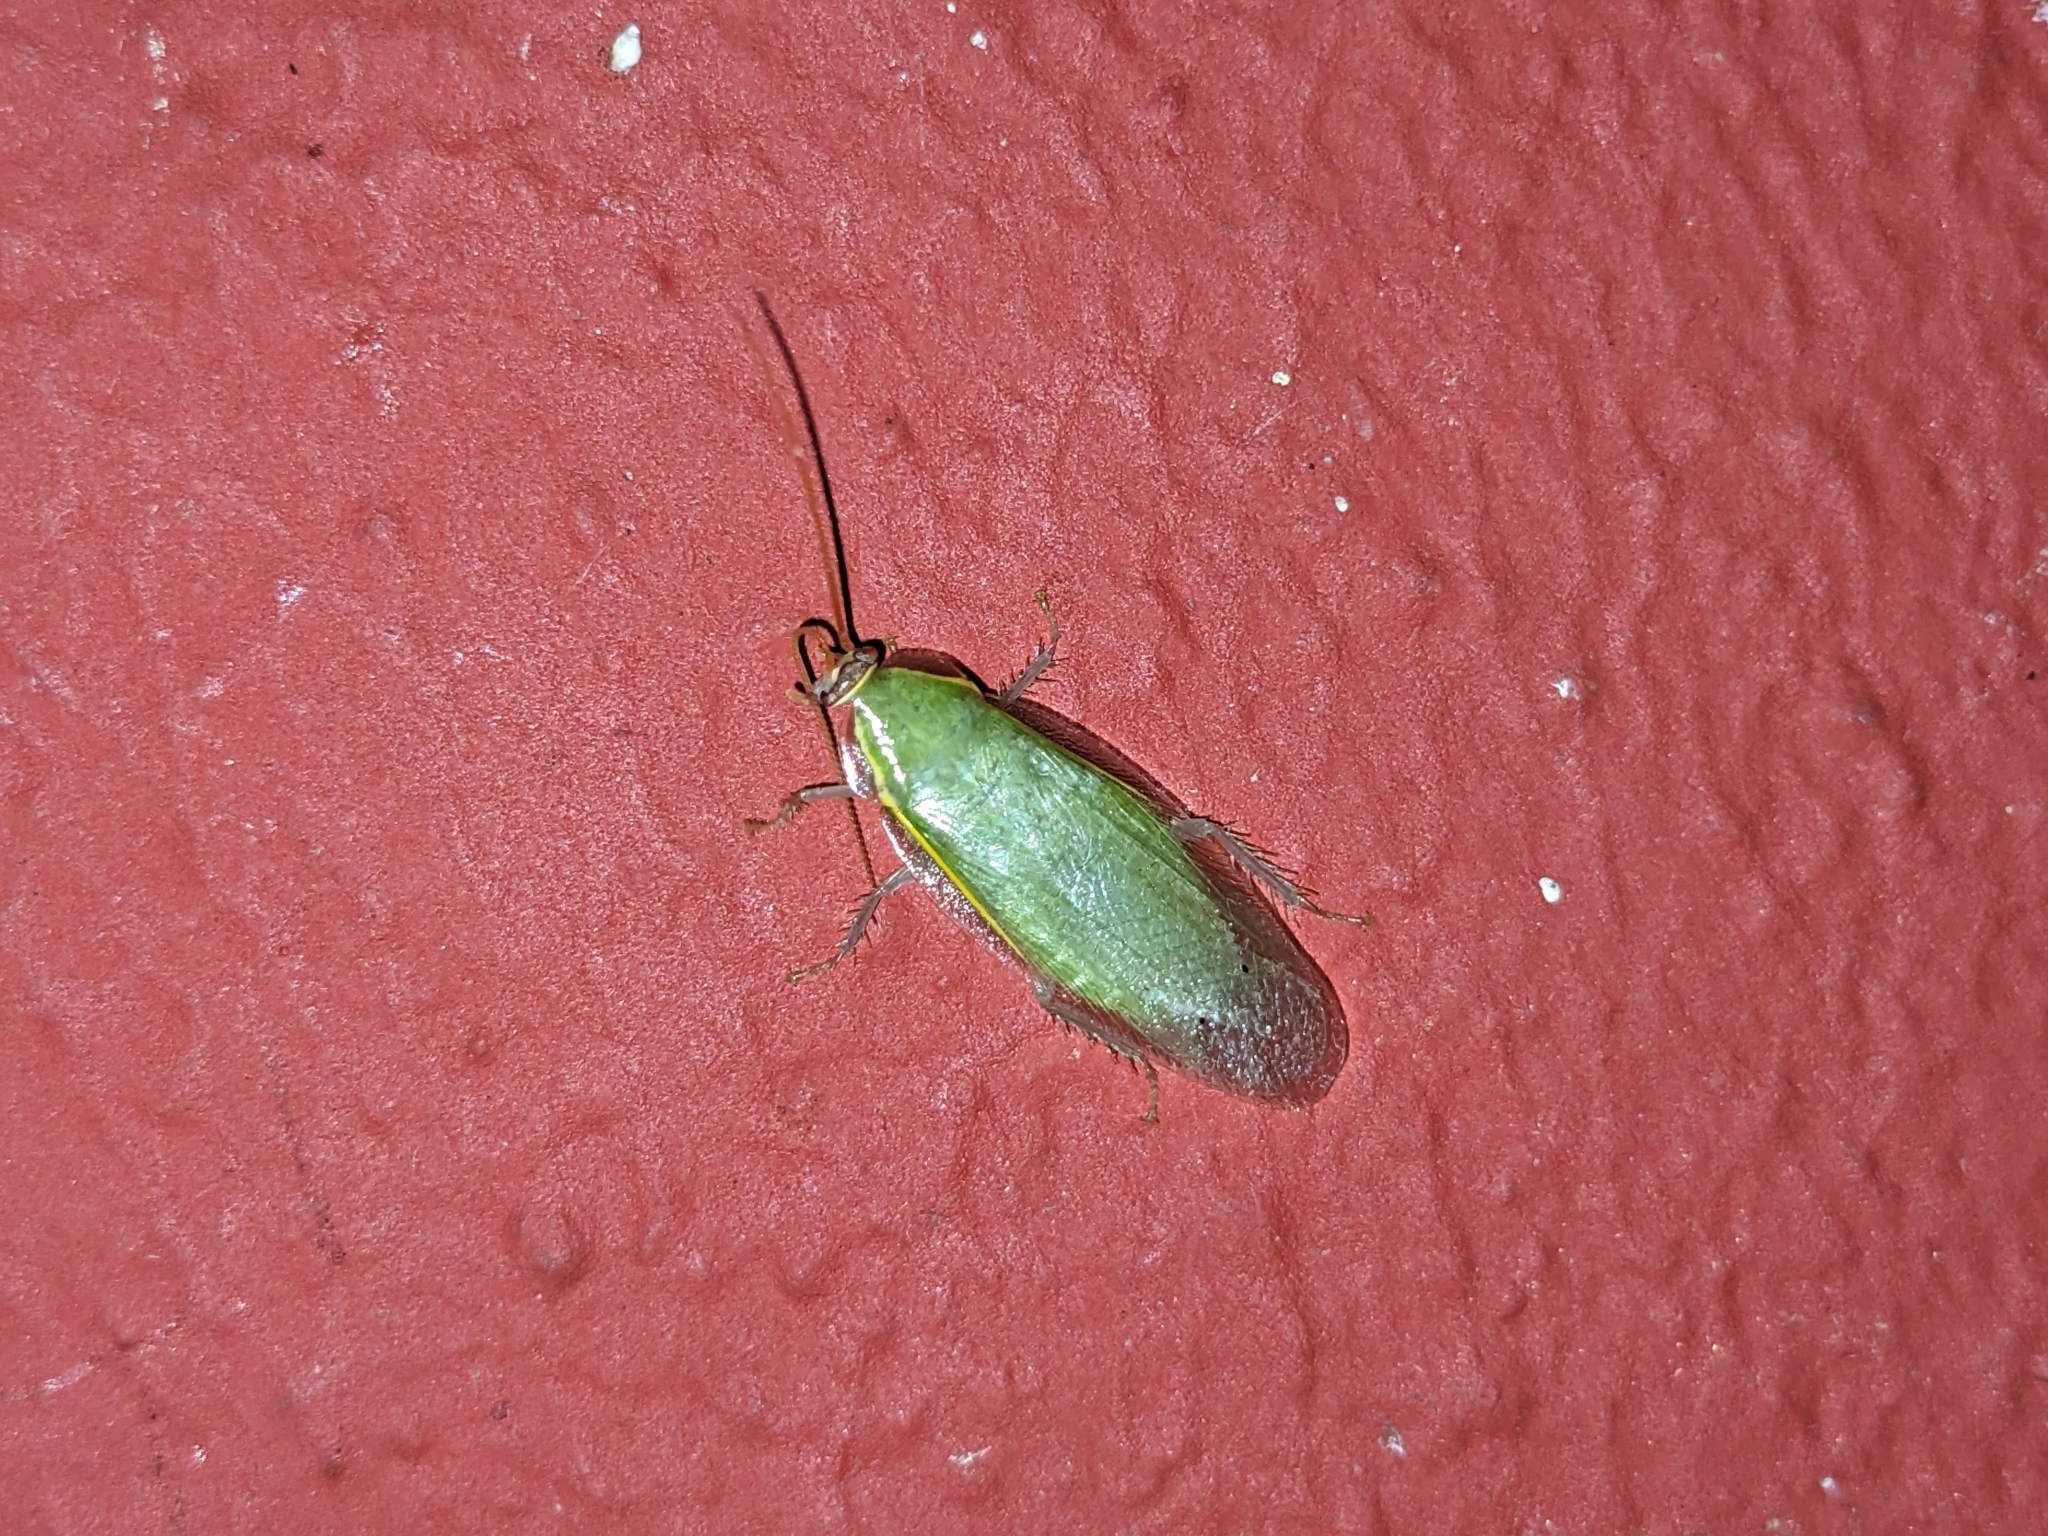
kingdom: Animalia
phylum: Arthropoda
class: Insecta
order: Blattodea
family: Blaberidae
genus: Panchlora
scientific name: Panchlora nivea
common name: Cuban cockroach
